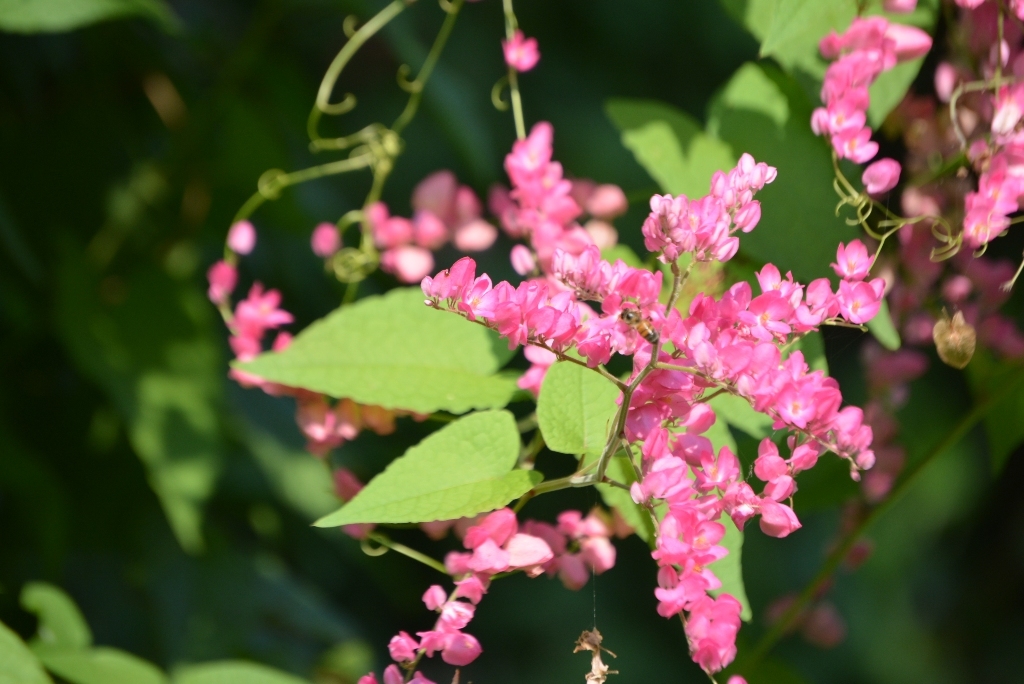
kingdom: Plantae
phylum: Tracheophyta
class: Magnoliopsida
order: Caryophyllales
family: Polygonaceae
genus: Antigonon
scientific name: Antigonon leptopus
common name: Coral vine
